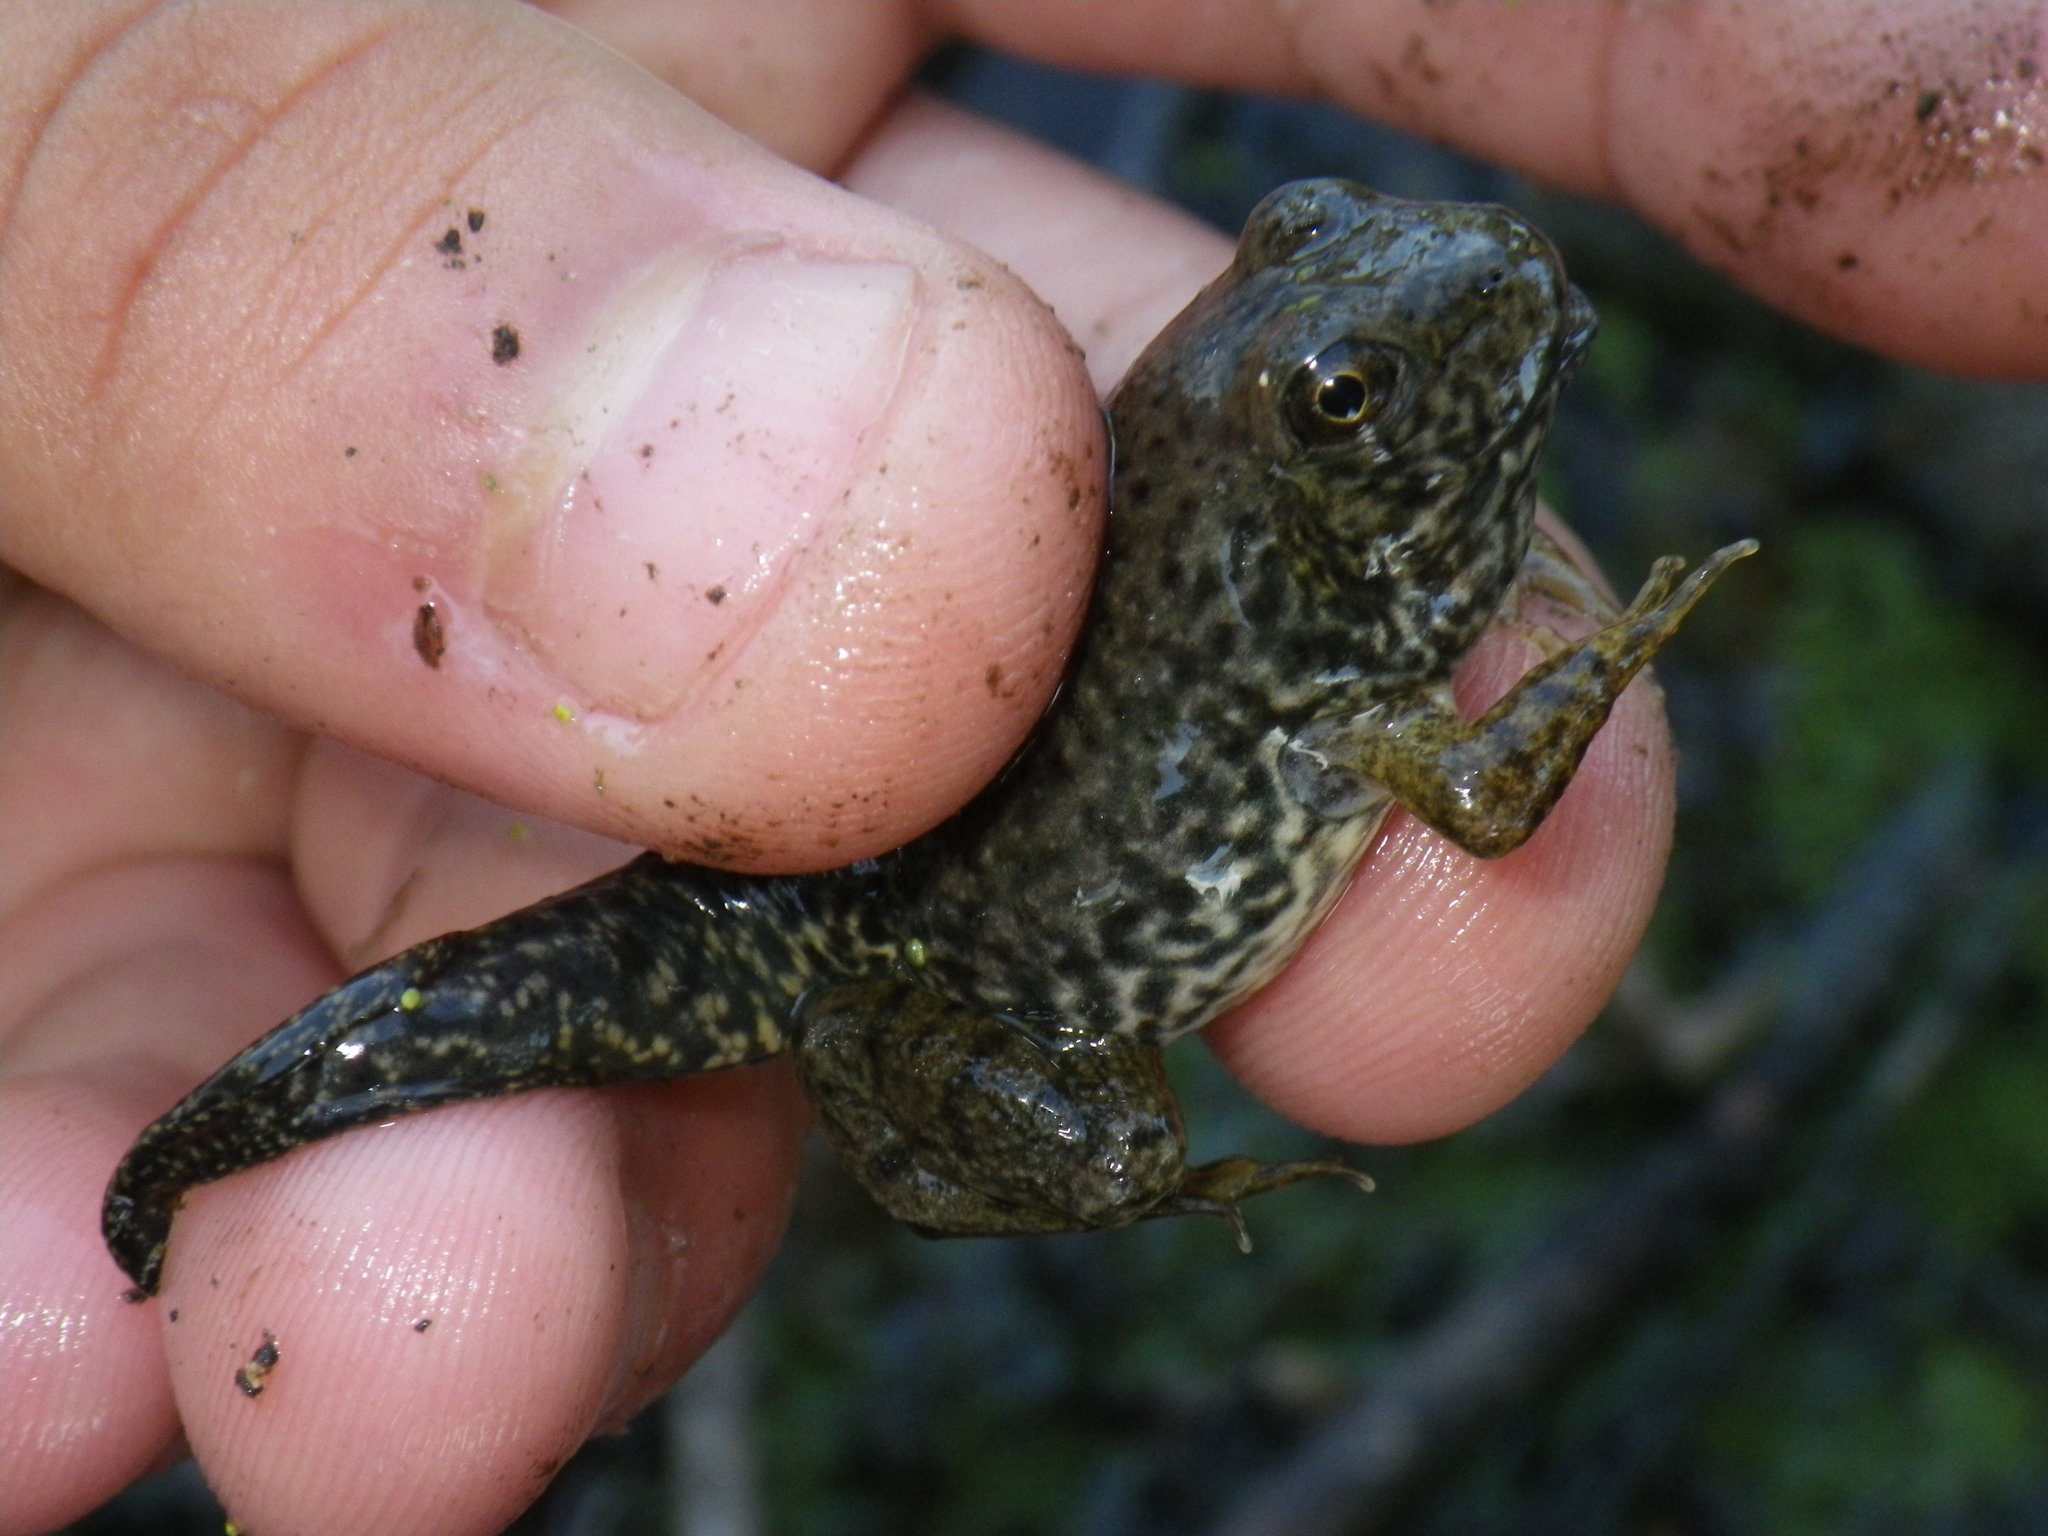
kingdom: Animalia
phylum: Chordata
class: Amphibia
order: Anura
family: Ranidae
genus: Lithobates
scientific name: Lithobates catesbeianus
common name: American bullfrog
